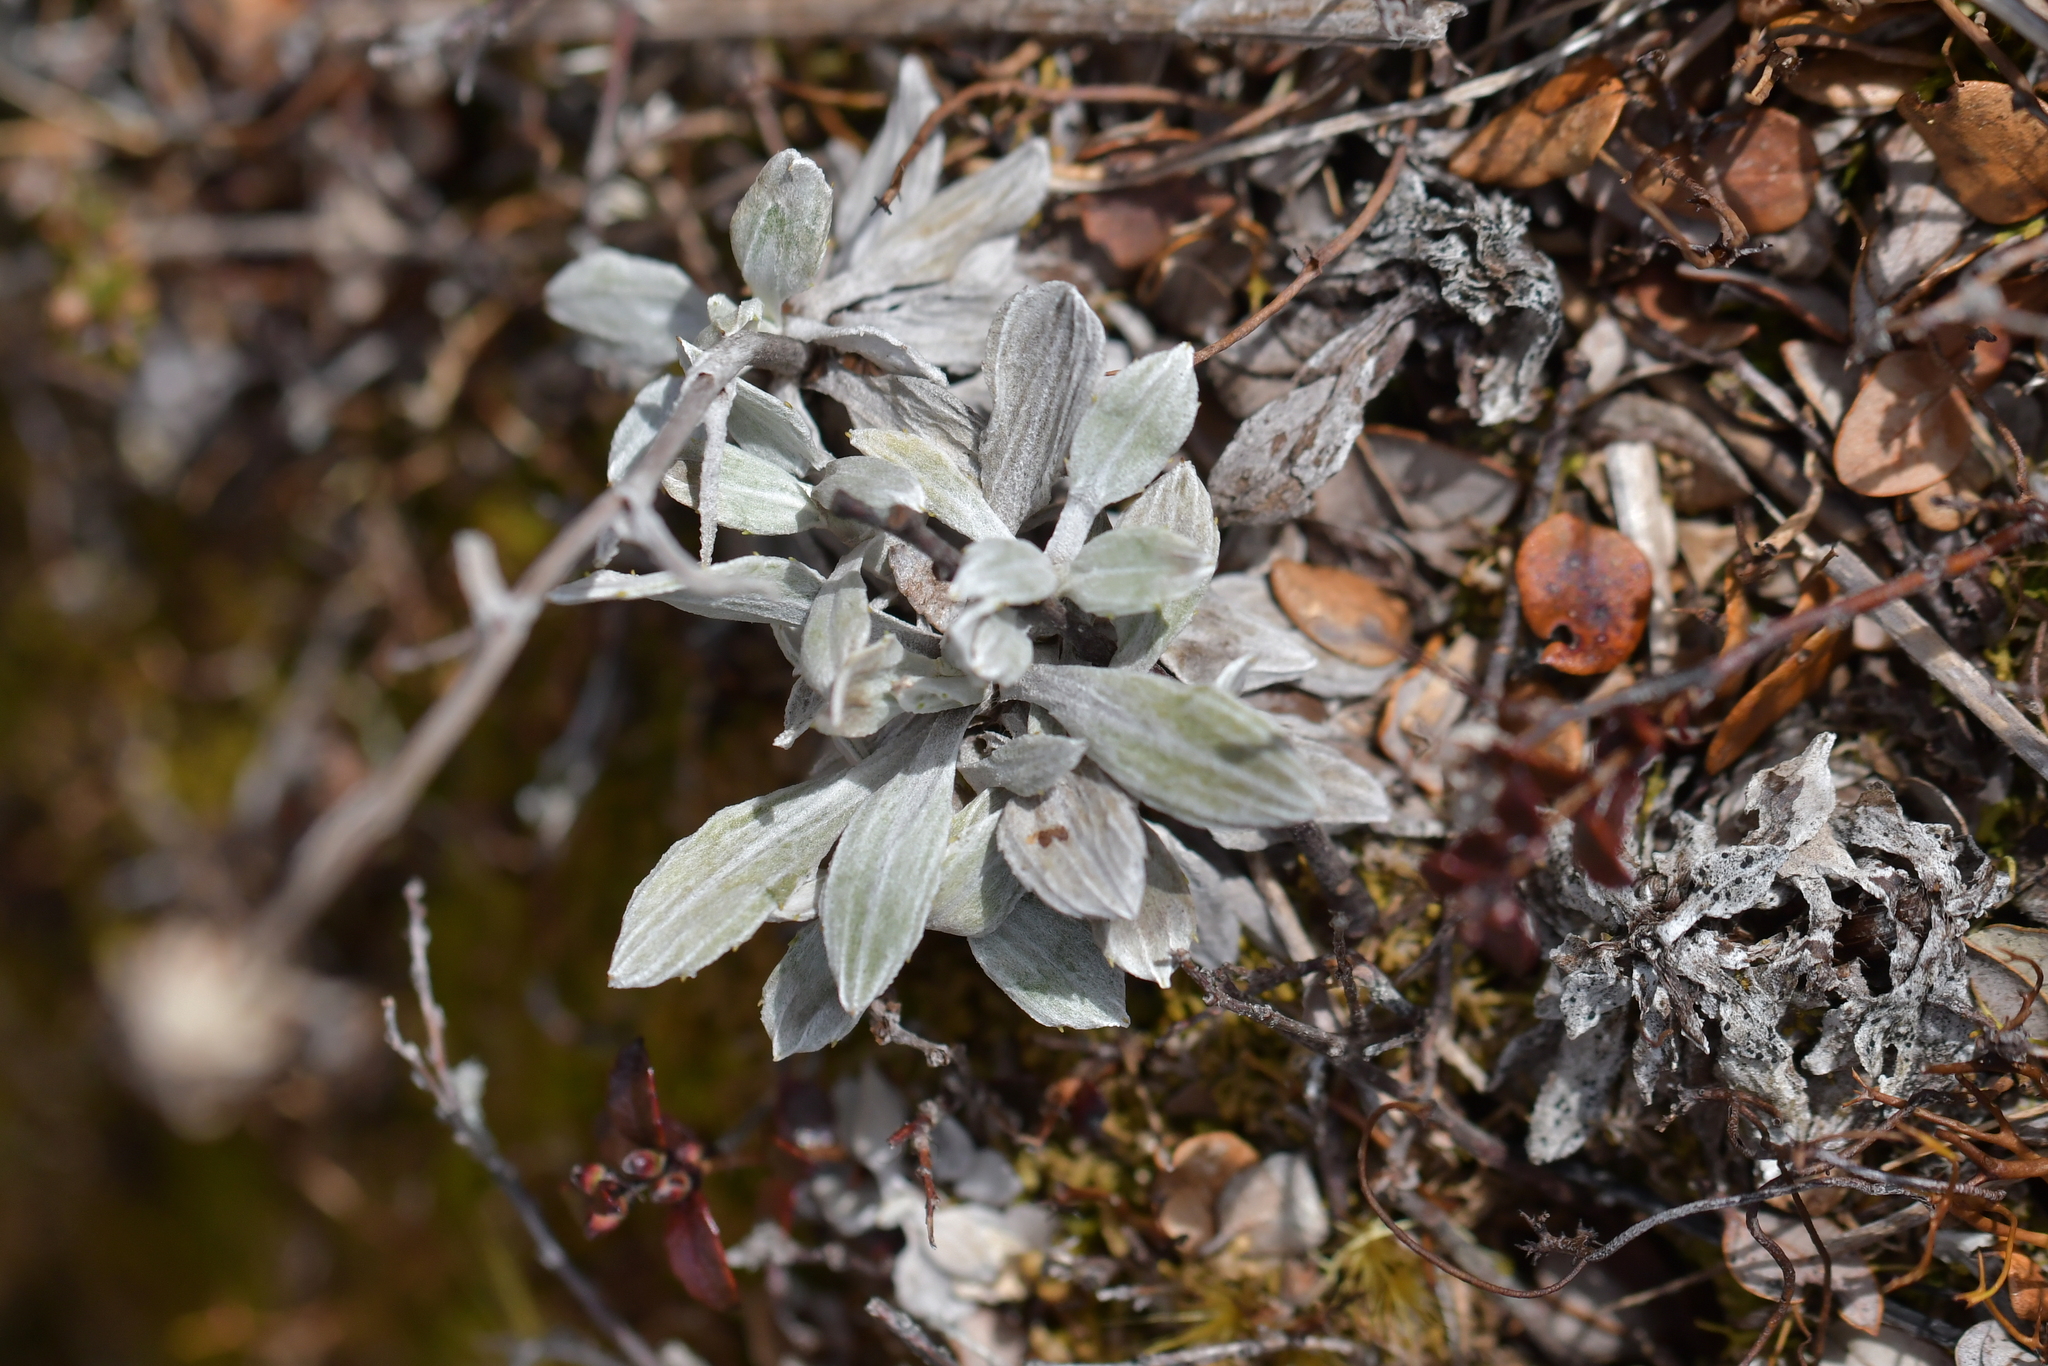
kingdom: Plantae
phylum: Tracheophyta
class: Magnoliopsida
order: Asterales
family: Asteraceae
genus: Celmisia
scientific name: Celmisia discolor
